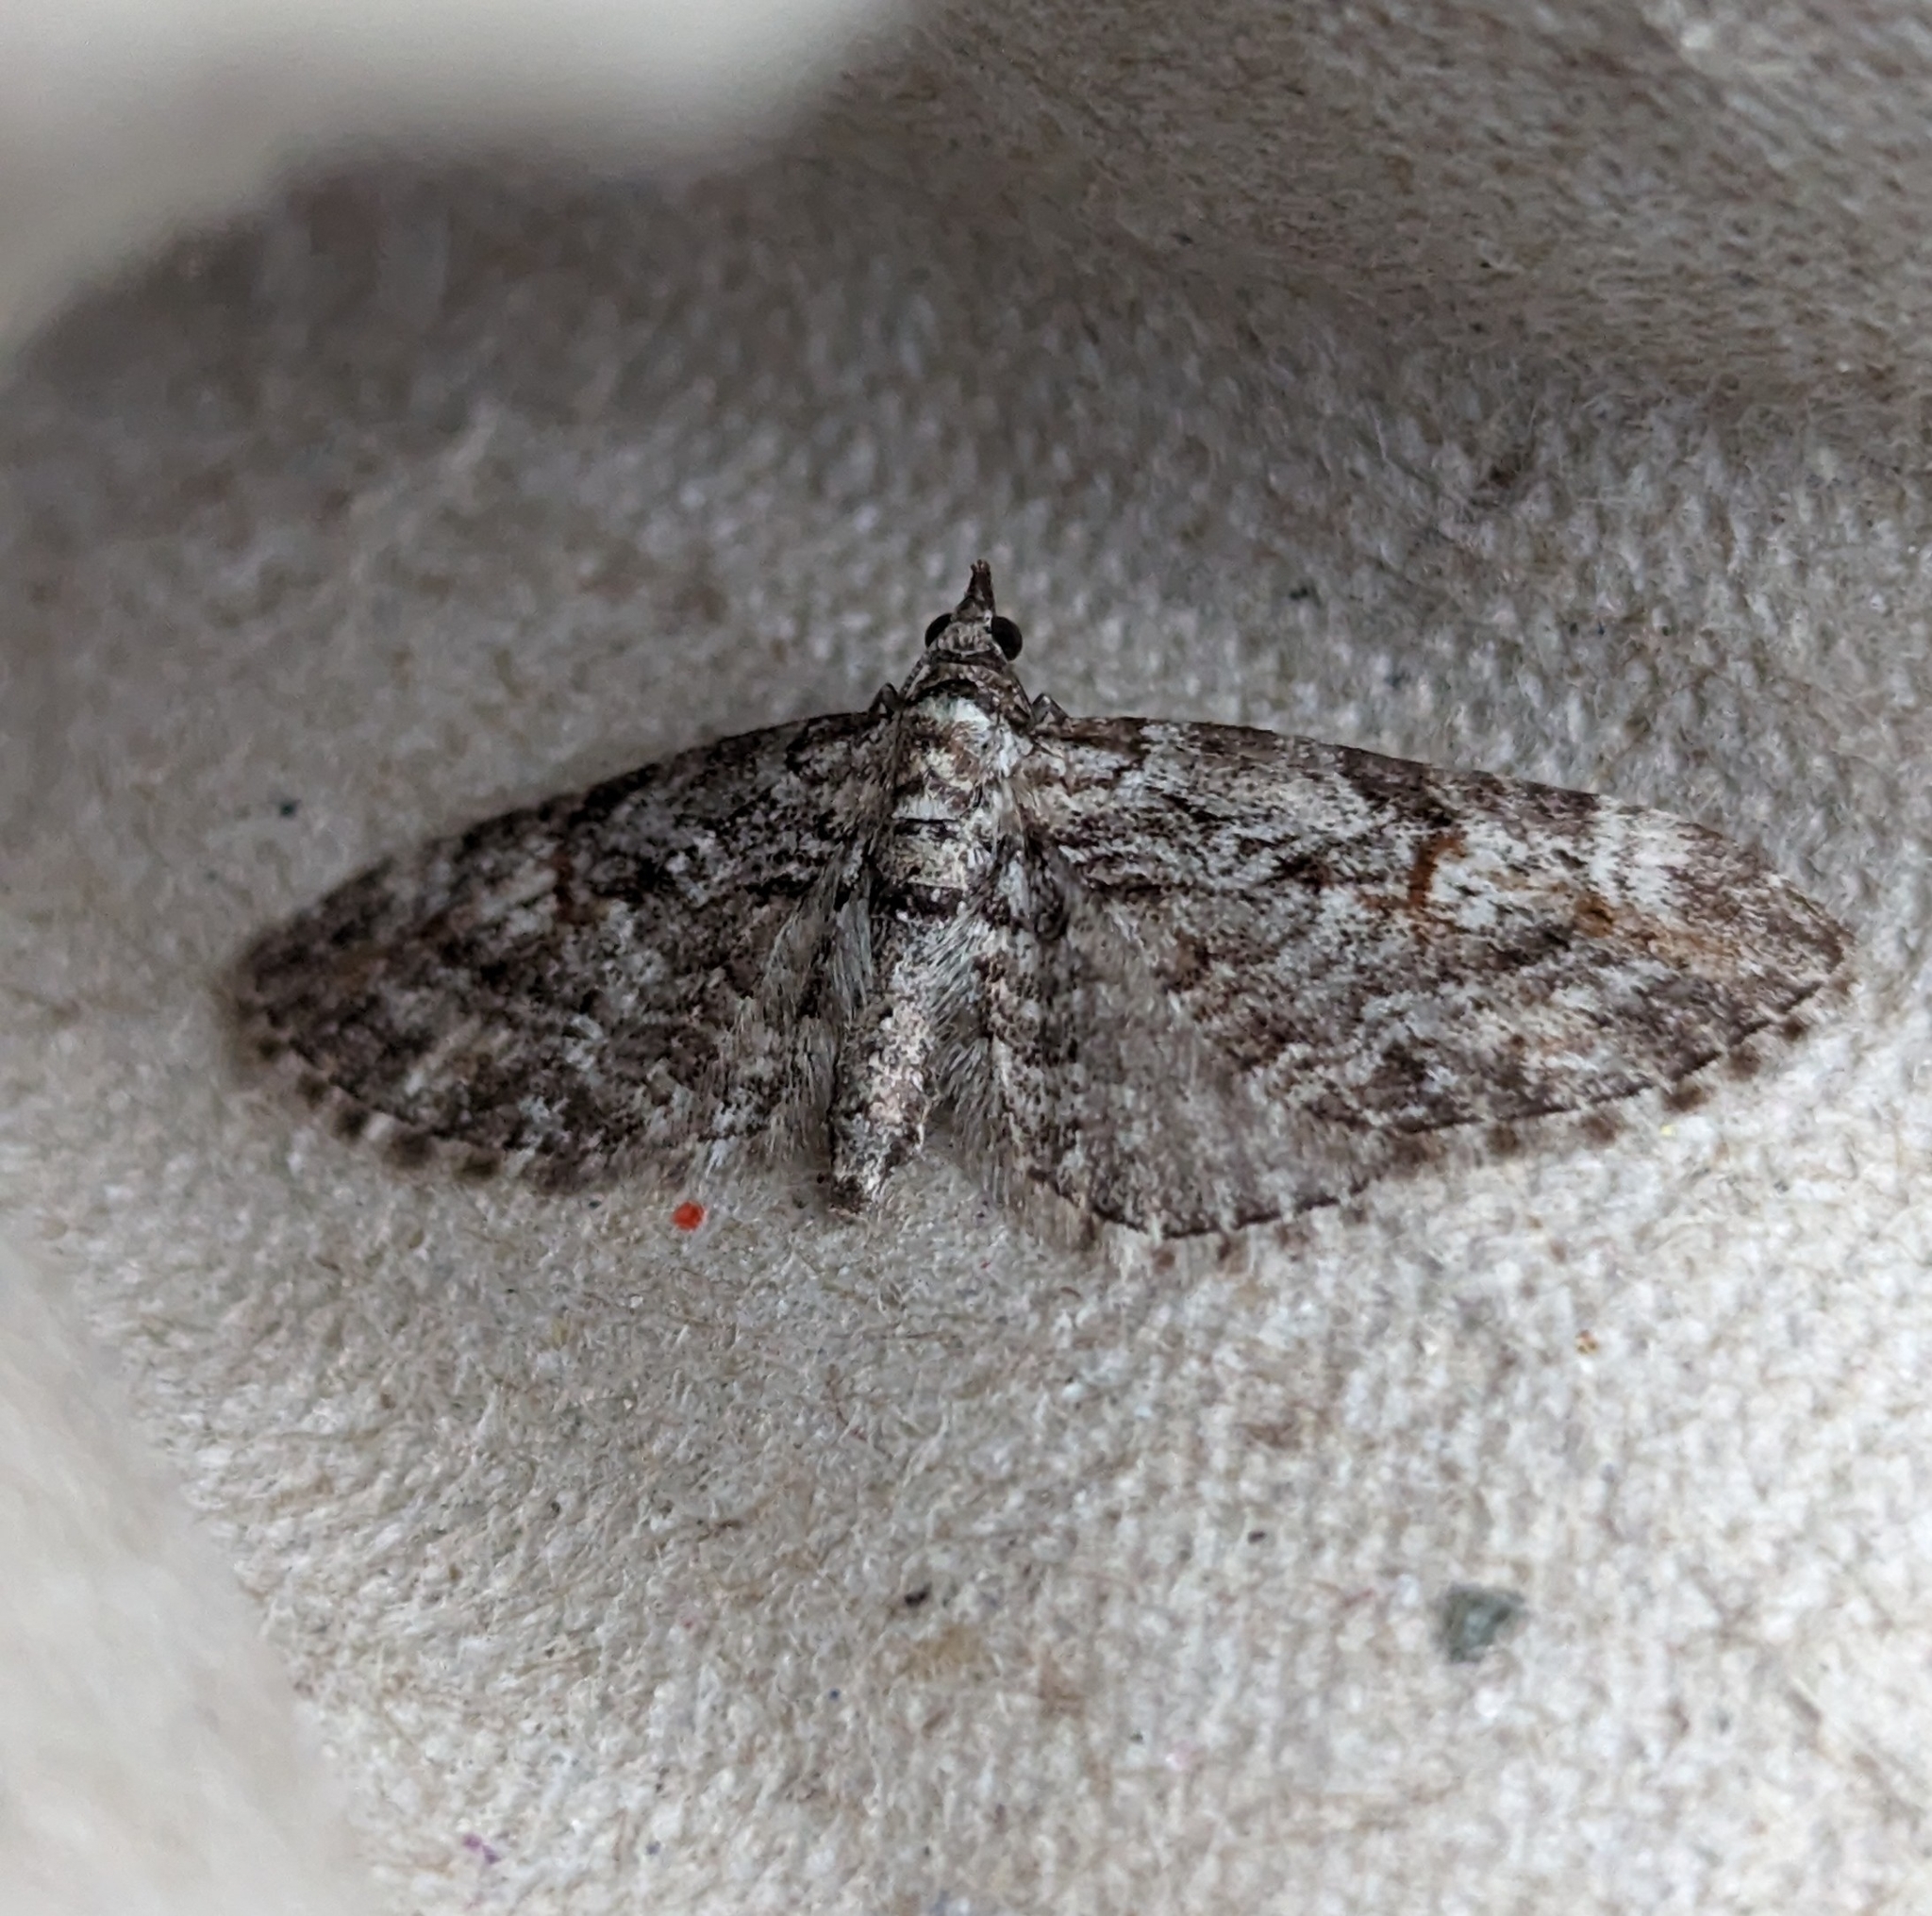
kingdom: Animalia
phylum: Arthropoda
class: Insecta
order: Lepidoptera
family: Geometridae
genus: Eupithecia
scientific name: Eupithecia graefii
